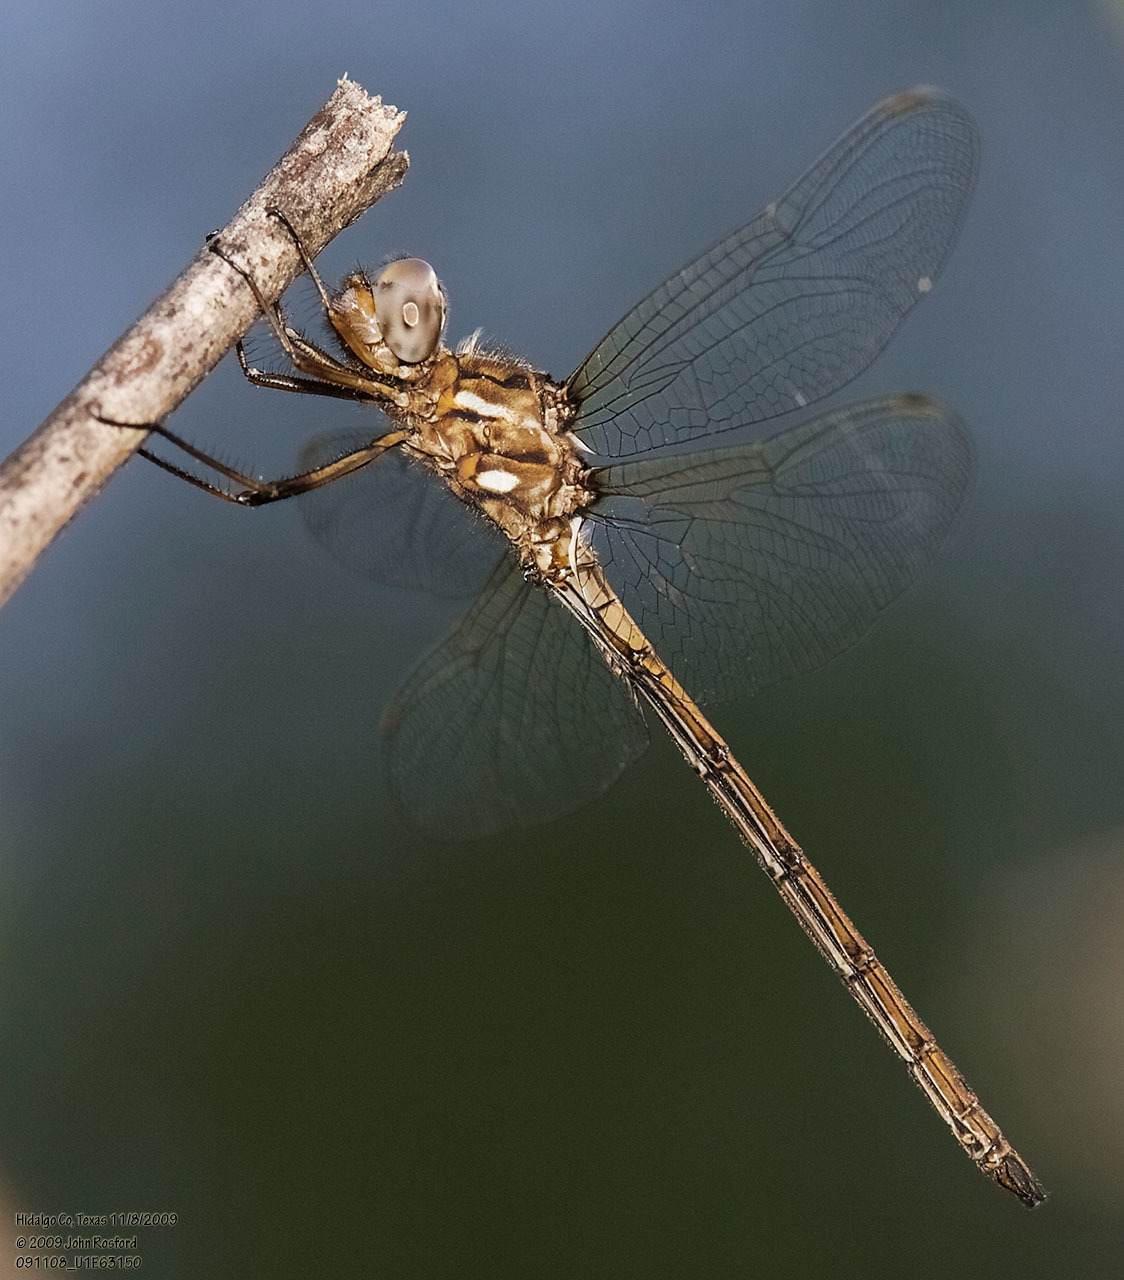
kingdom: Animalia
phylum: Arthropoda
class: Insecta
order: Odonata
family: Libellulidae
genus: Macrothemis
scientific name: Macrothemis inacuta
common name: Straw-colored sylph
